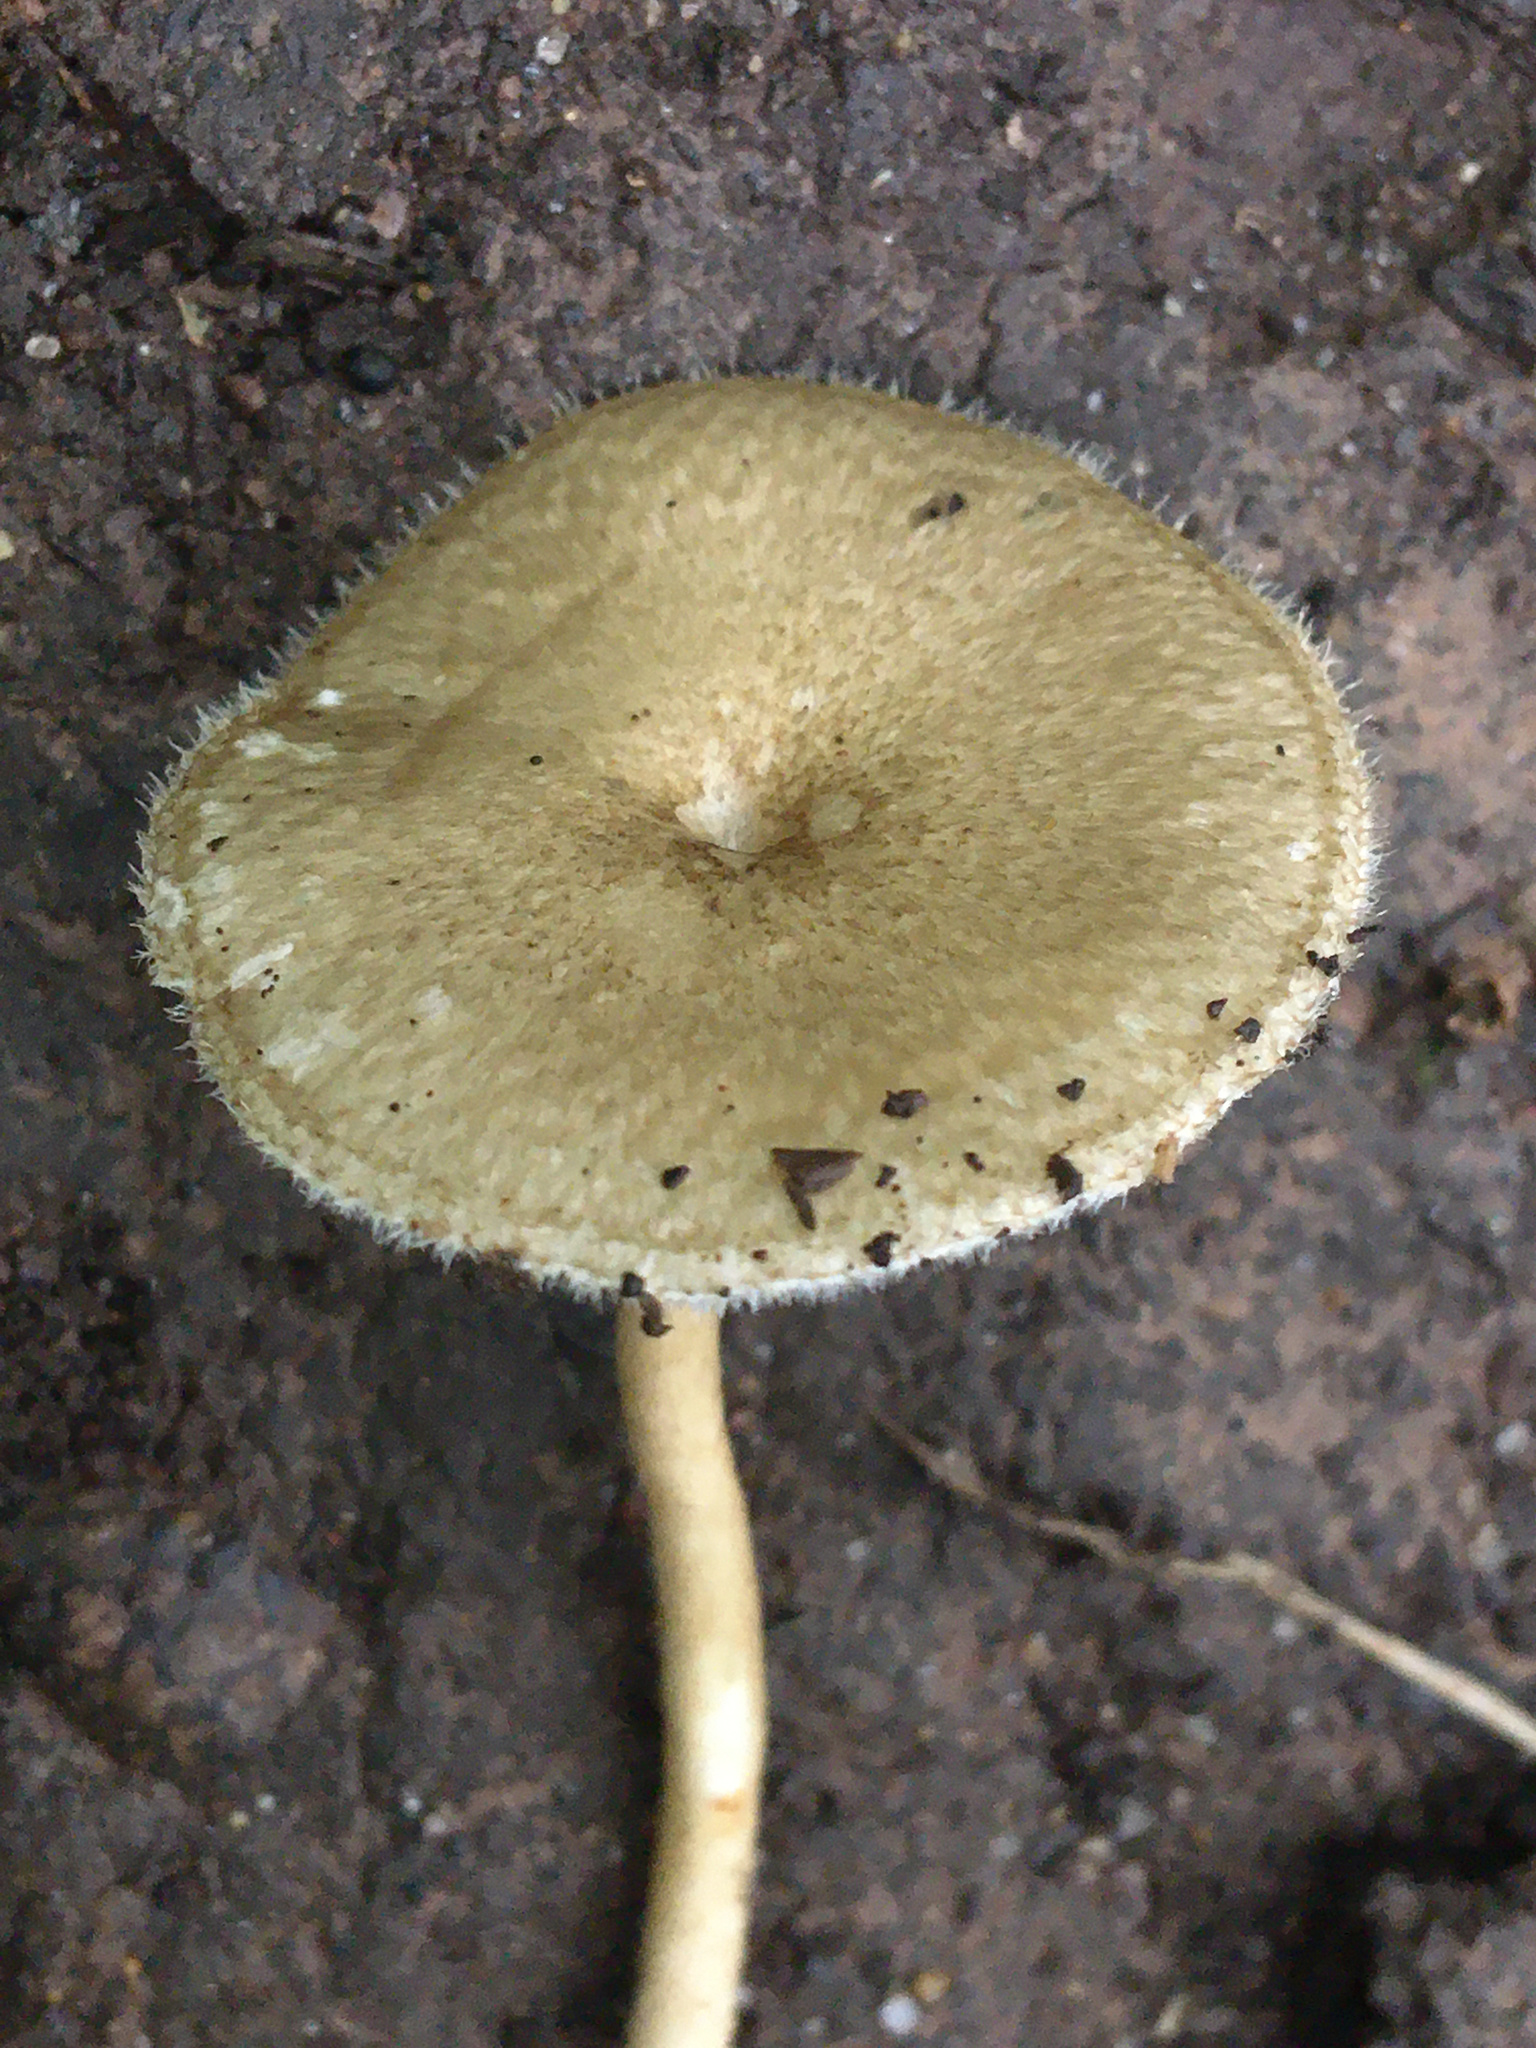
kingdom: Fungi
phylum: Basidiomycota
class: Agaricomycetes
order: Polyporales
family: Polyporaceae
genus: Lentinus
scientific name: Lentinus arcularius
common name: Spring polypore
